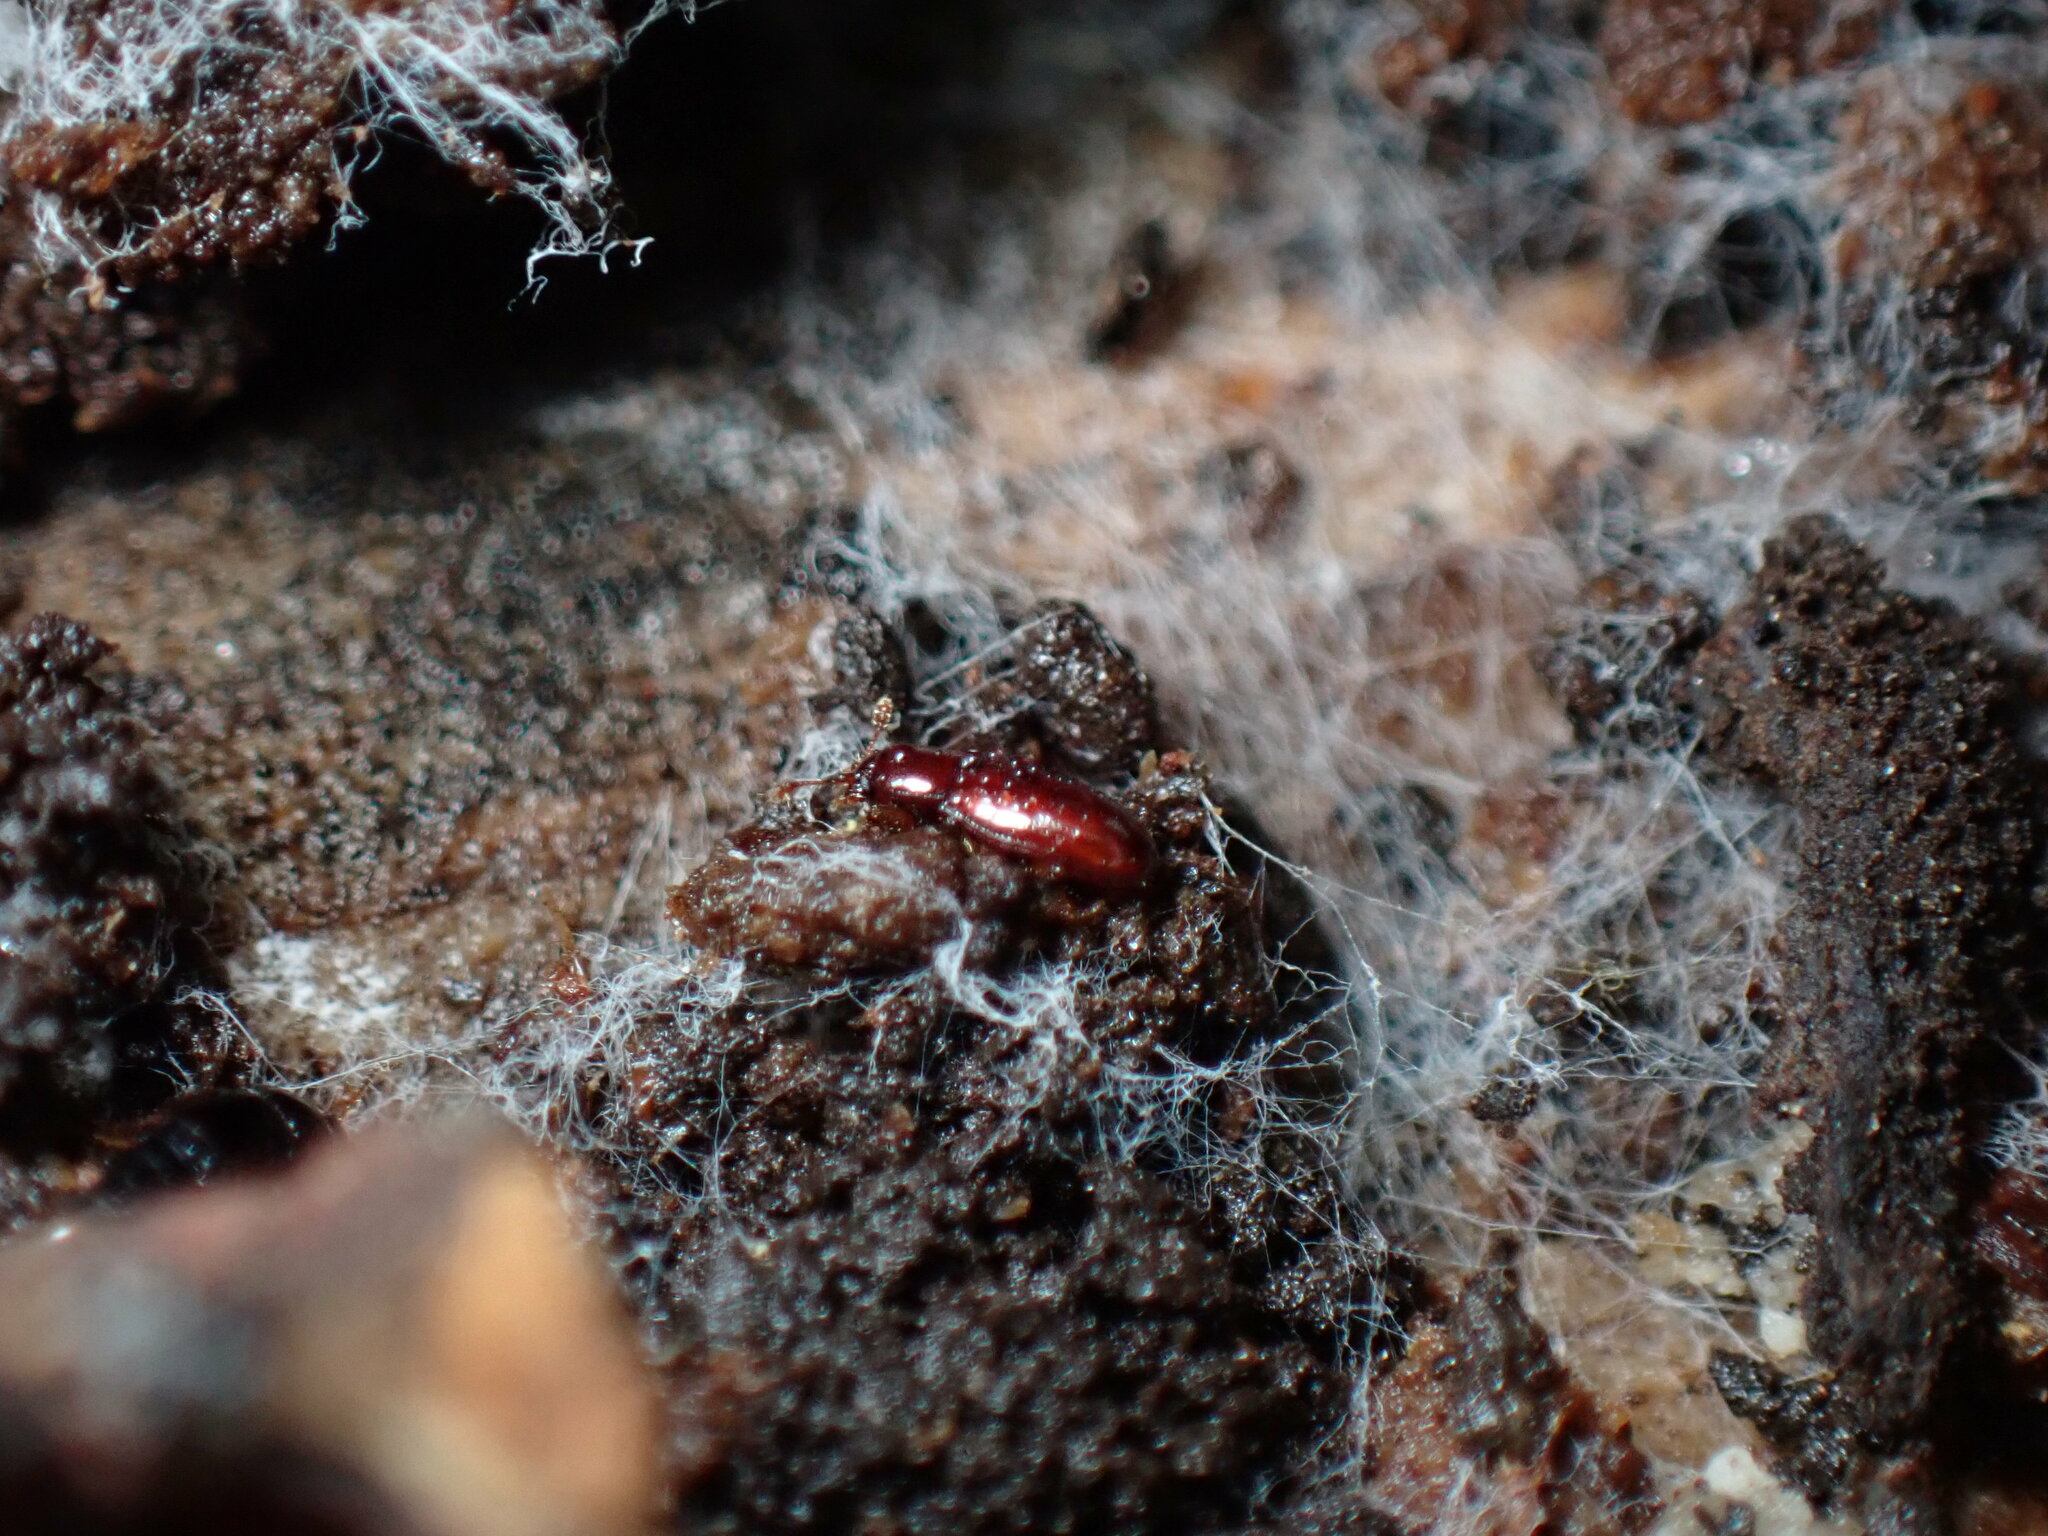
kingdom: Animalia
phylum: Arthropoda
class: Insecta
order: Coleoptera
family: Cerylonidae
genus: Philothermus
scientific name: Philothermus glabriculus
